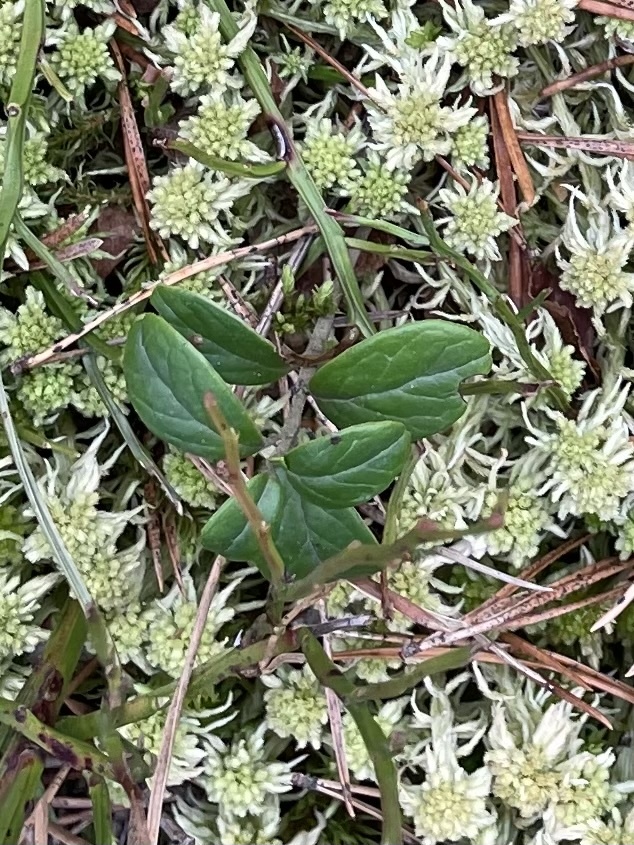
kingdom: Plantae
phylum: Tracheophyta
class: Magnoliopsida
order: Ericales
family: Ericaceae
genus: Vaccinium
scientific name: Vaccinium vitis-idaea
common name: Cowberry
